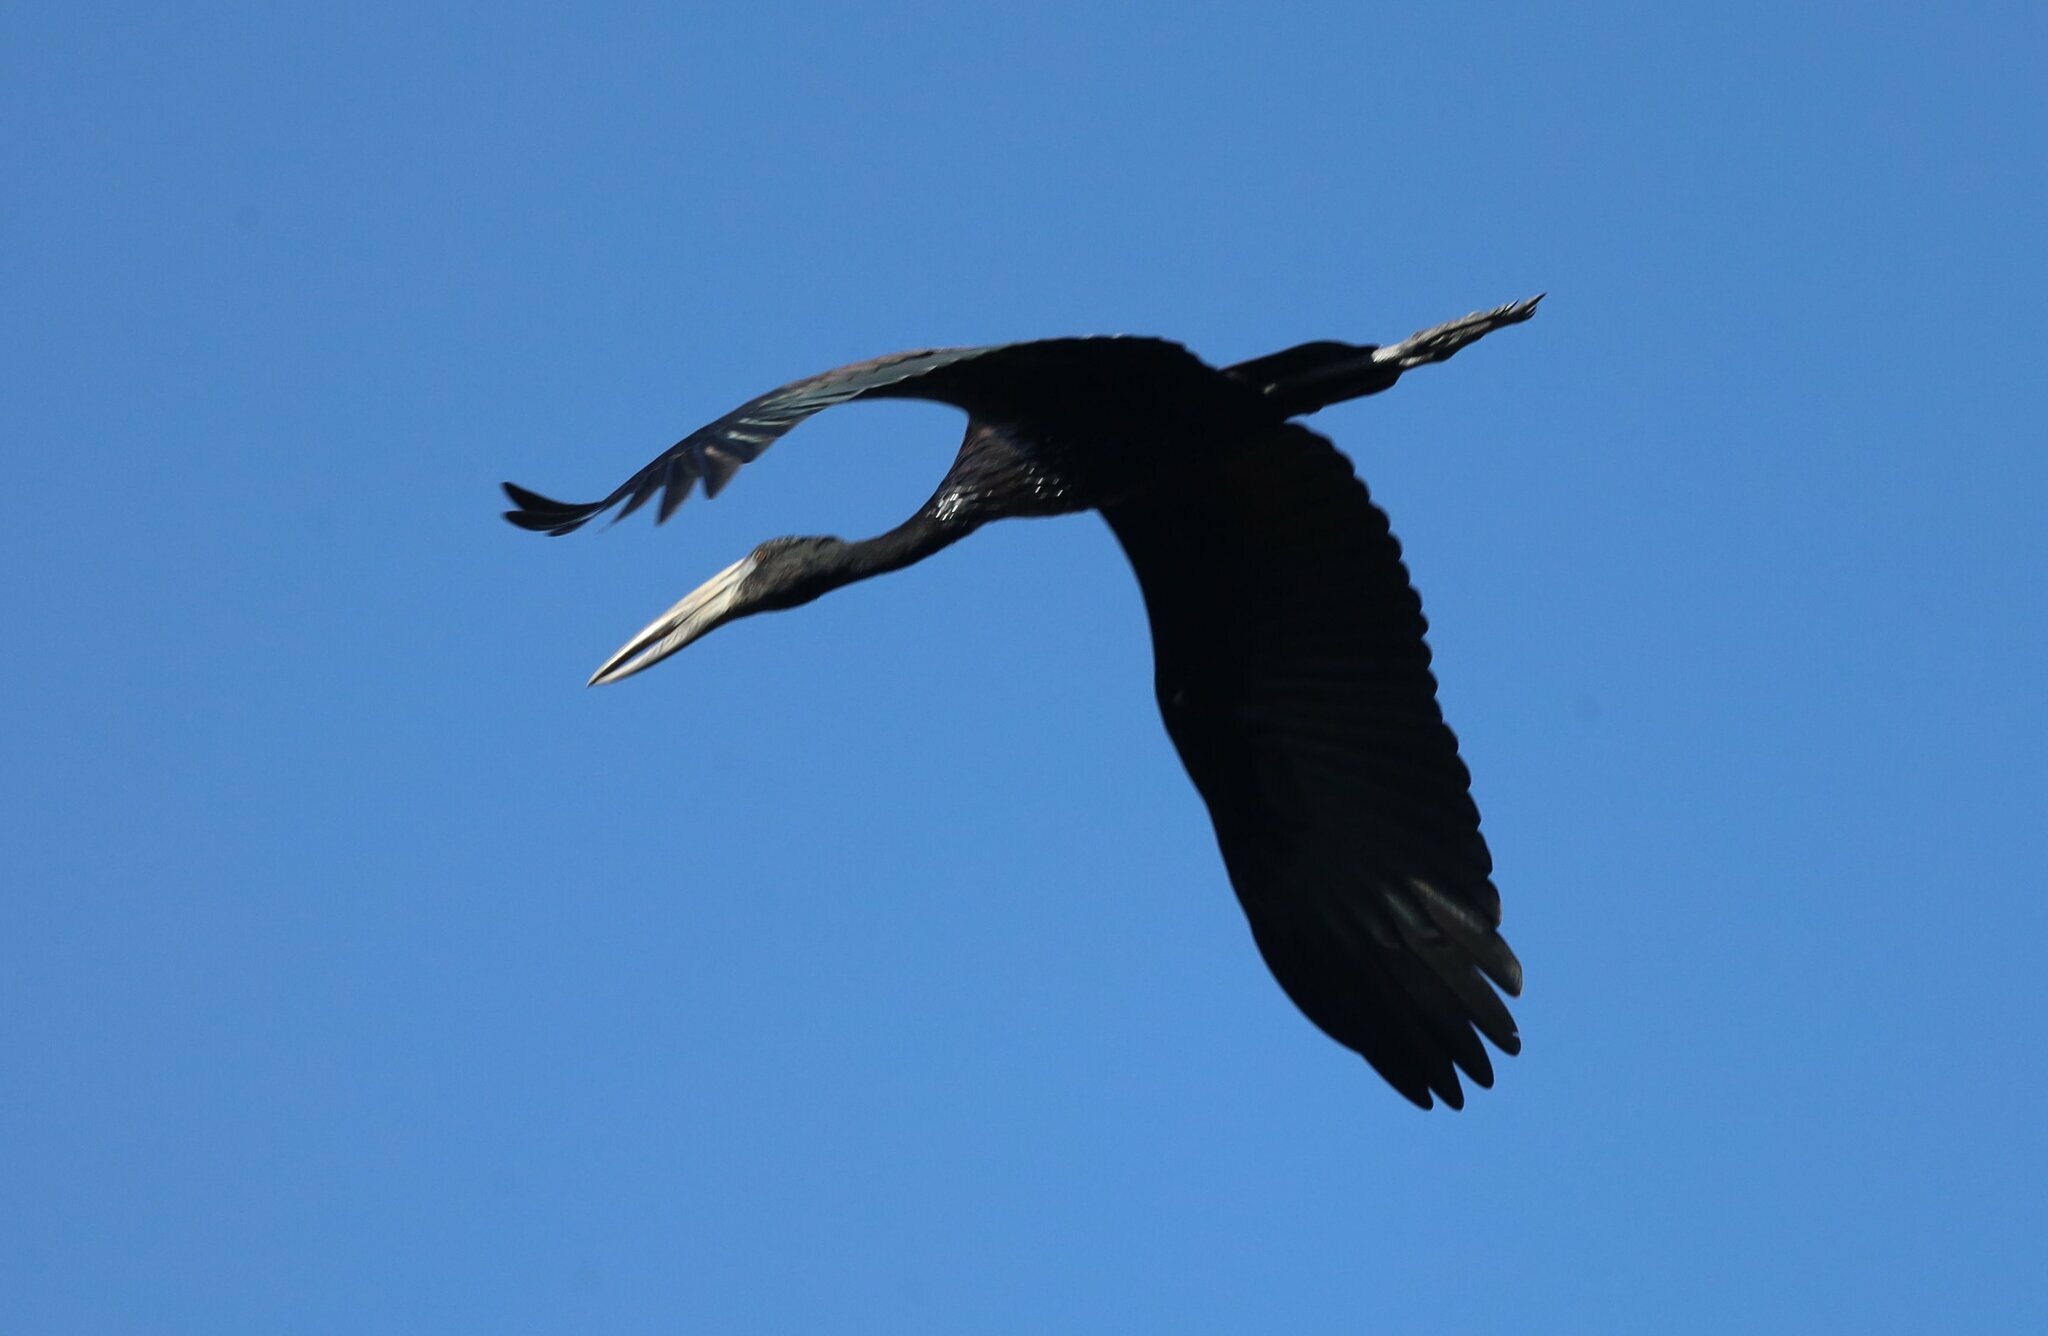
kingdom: Animalia
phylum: Chordata
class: Aves
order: Ciconiiformes
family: Ciconiidae
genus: Anastomus
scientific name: Anastomus lamelligerus
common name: African openbill
